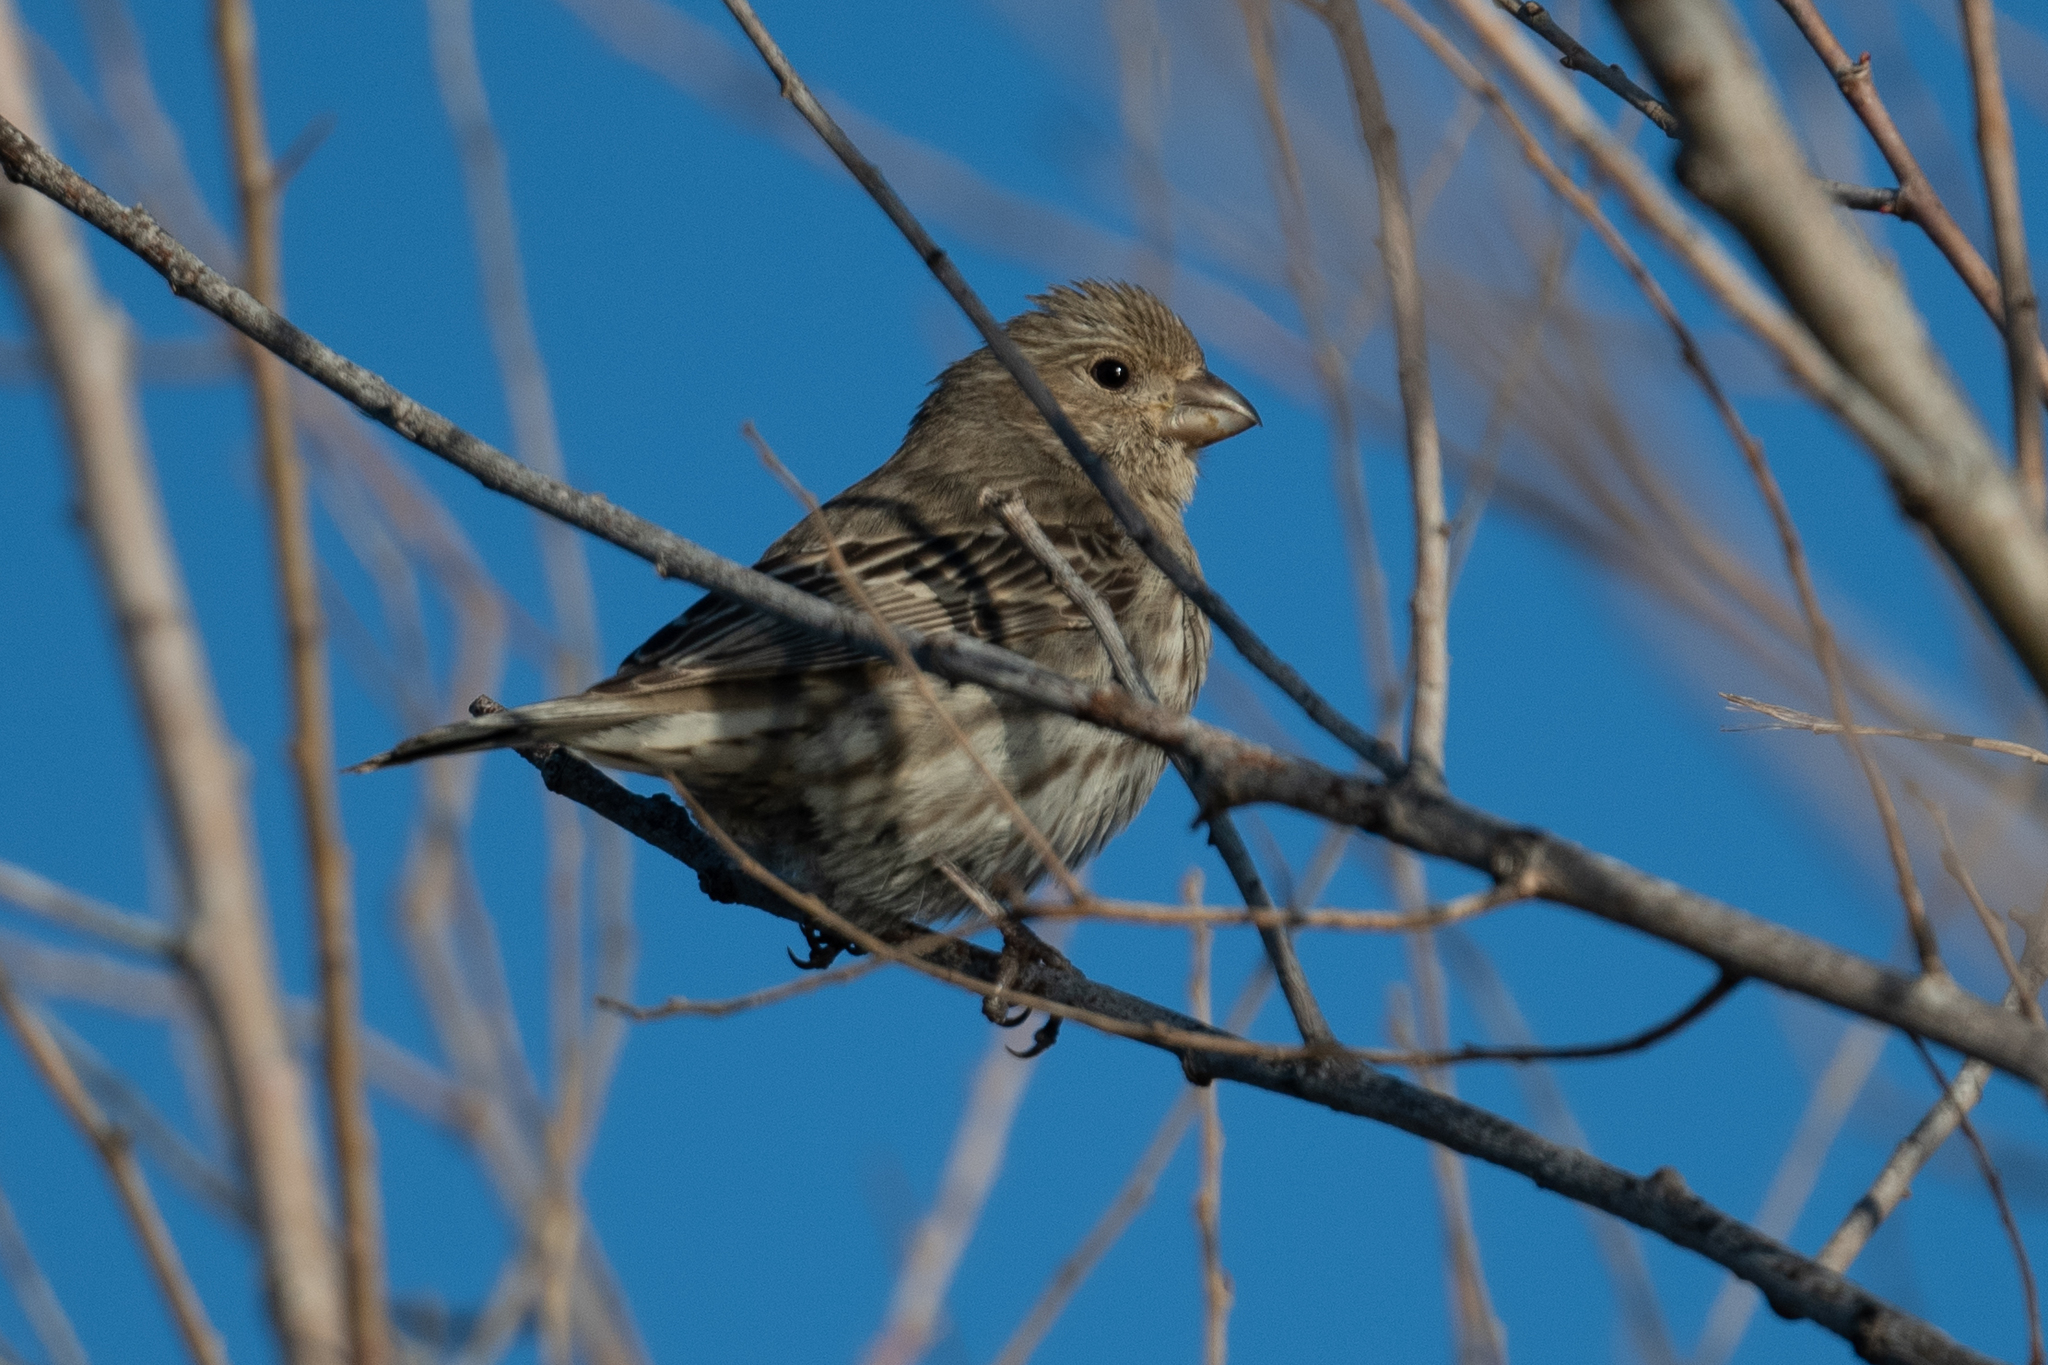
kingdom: Animalia
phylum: Chordata
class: Aves
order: Passeriformes
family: Fringillidae
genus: Haemorhous
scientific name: Haemorhous mexicanus
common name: House finch
